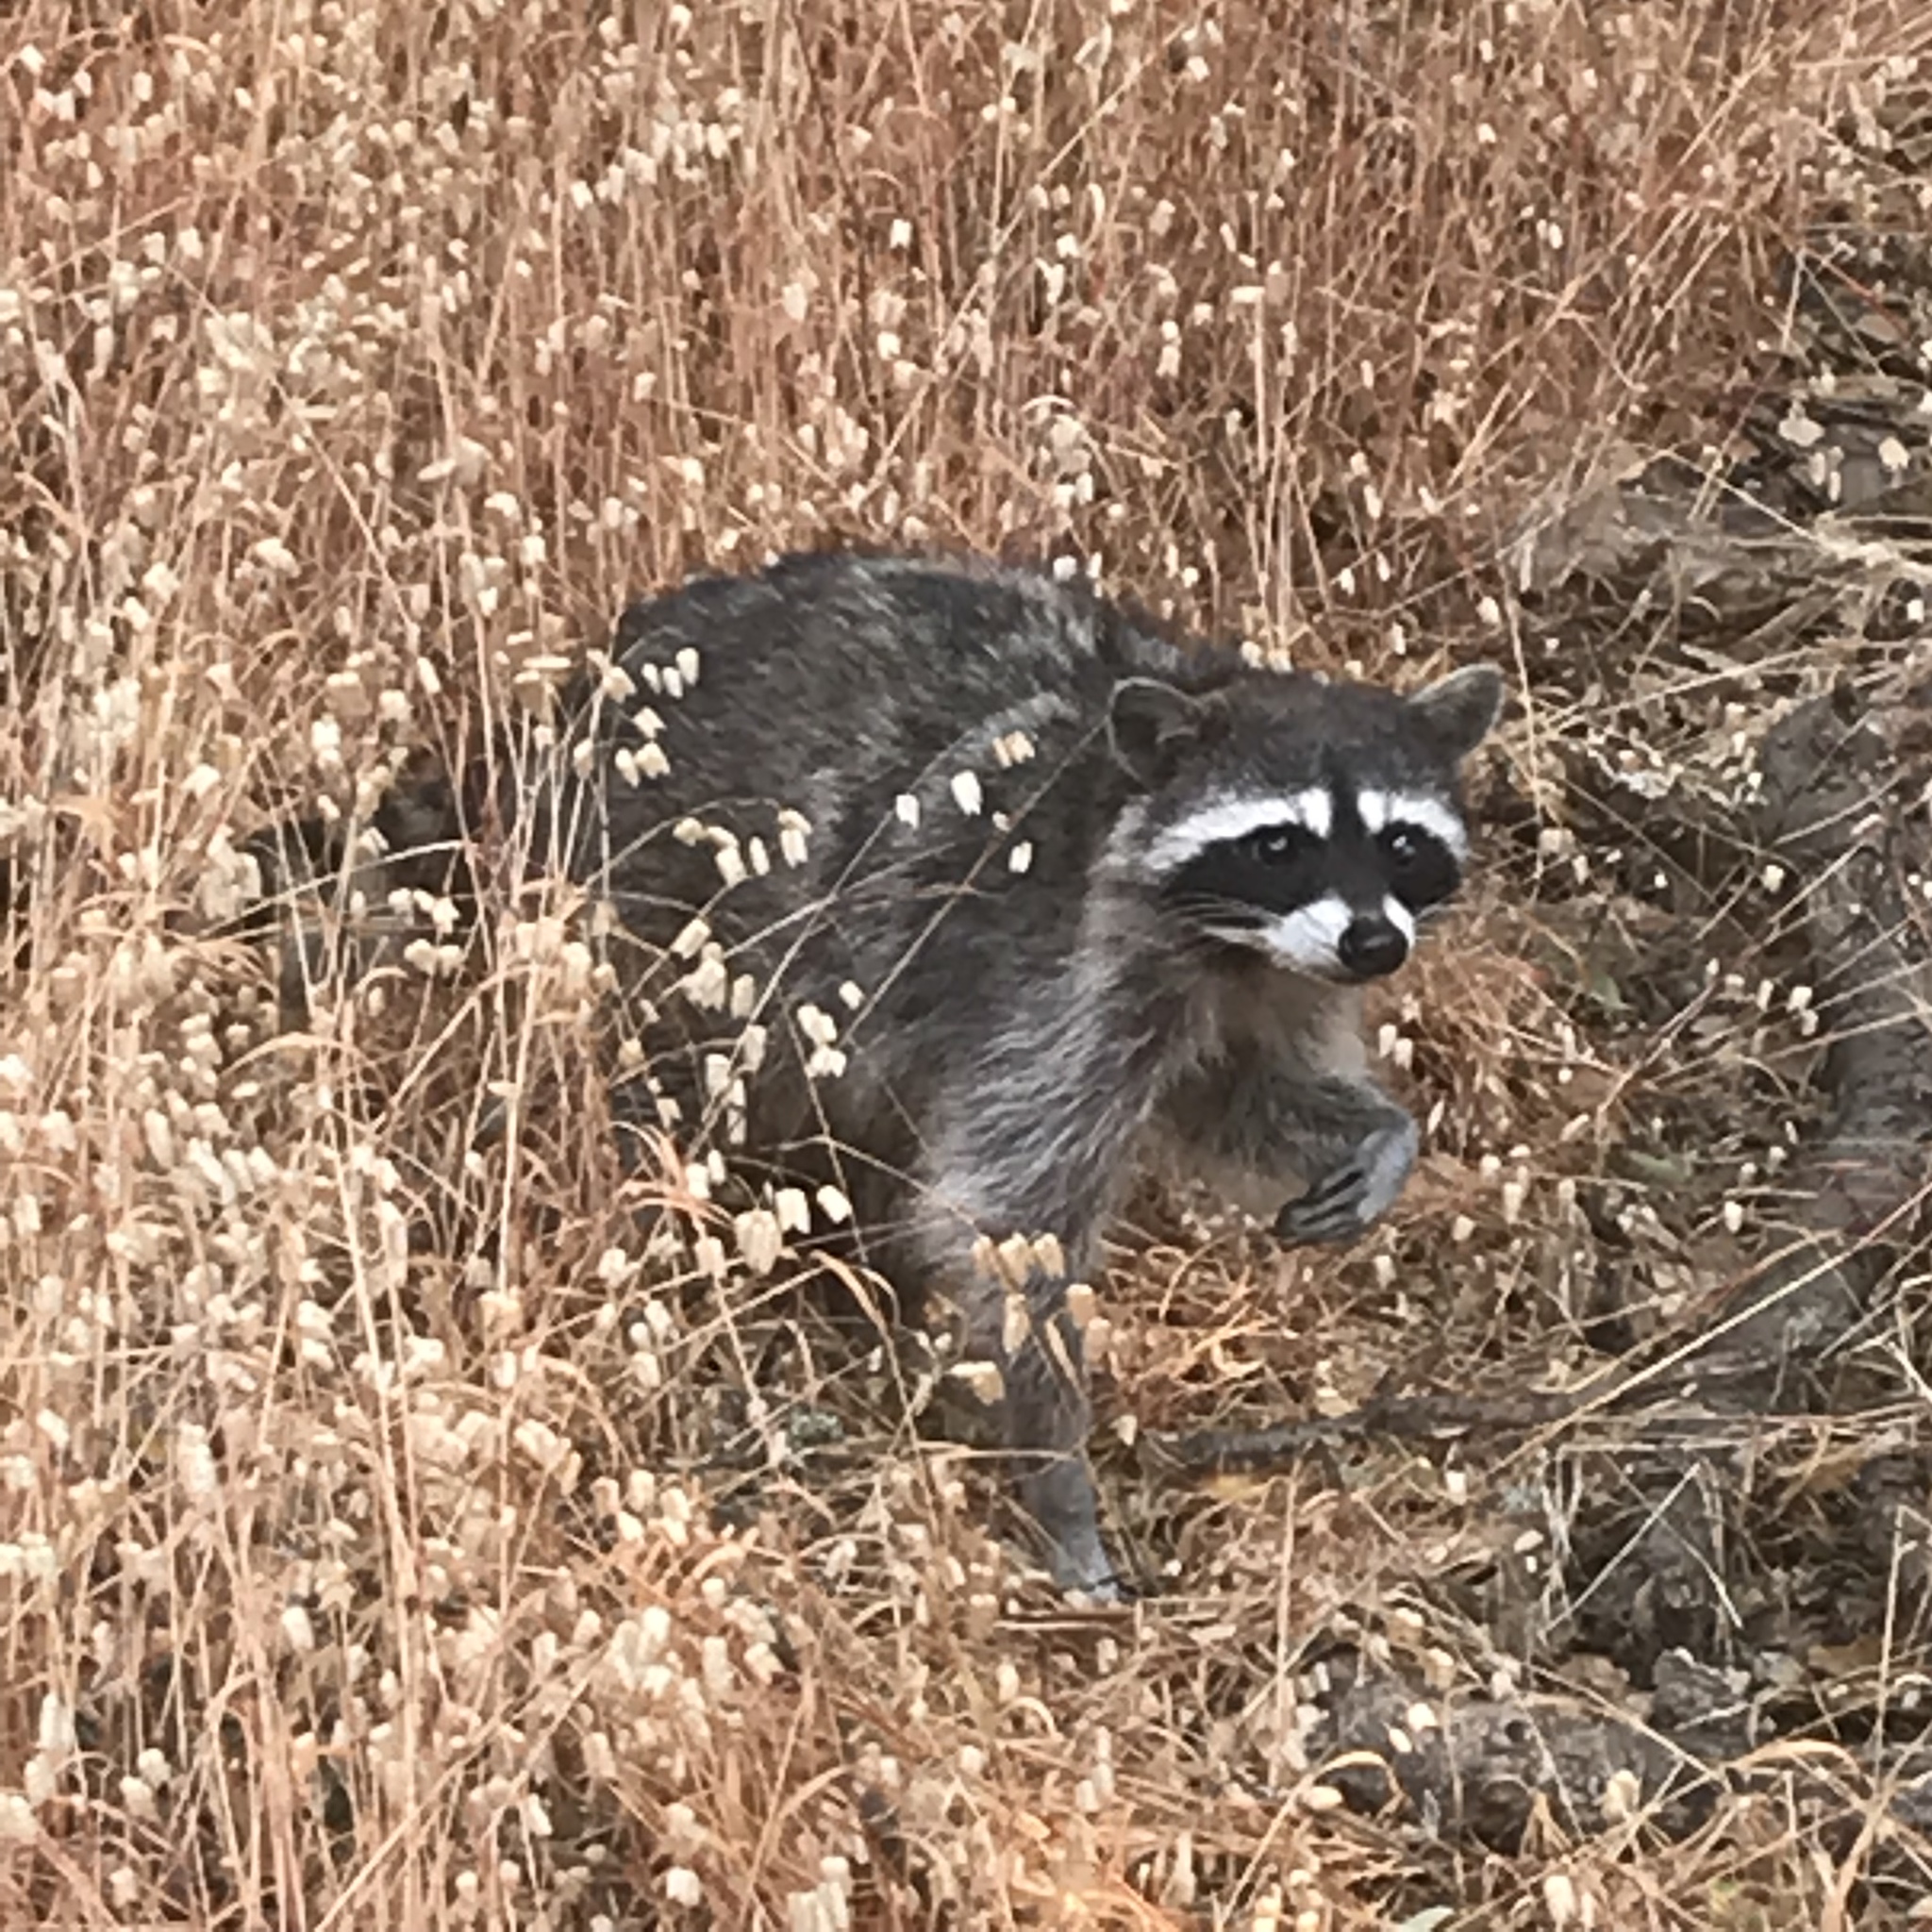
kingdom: Animalia
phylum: Chordata
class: Mammalia
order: Carnivora
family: Procyonidae
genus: Procyon
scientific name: Procyon lotor
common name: Raccoon
